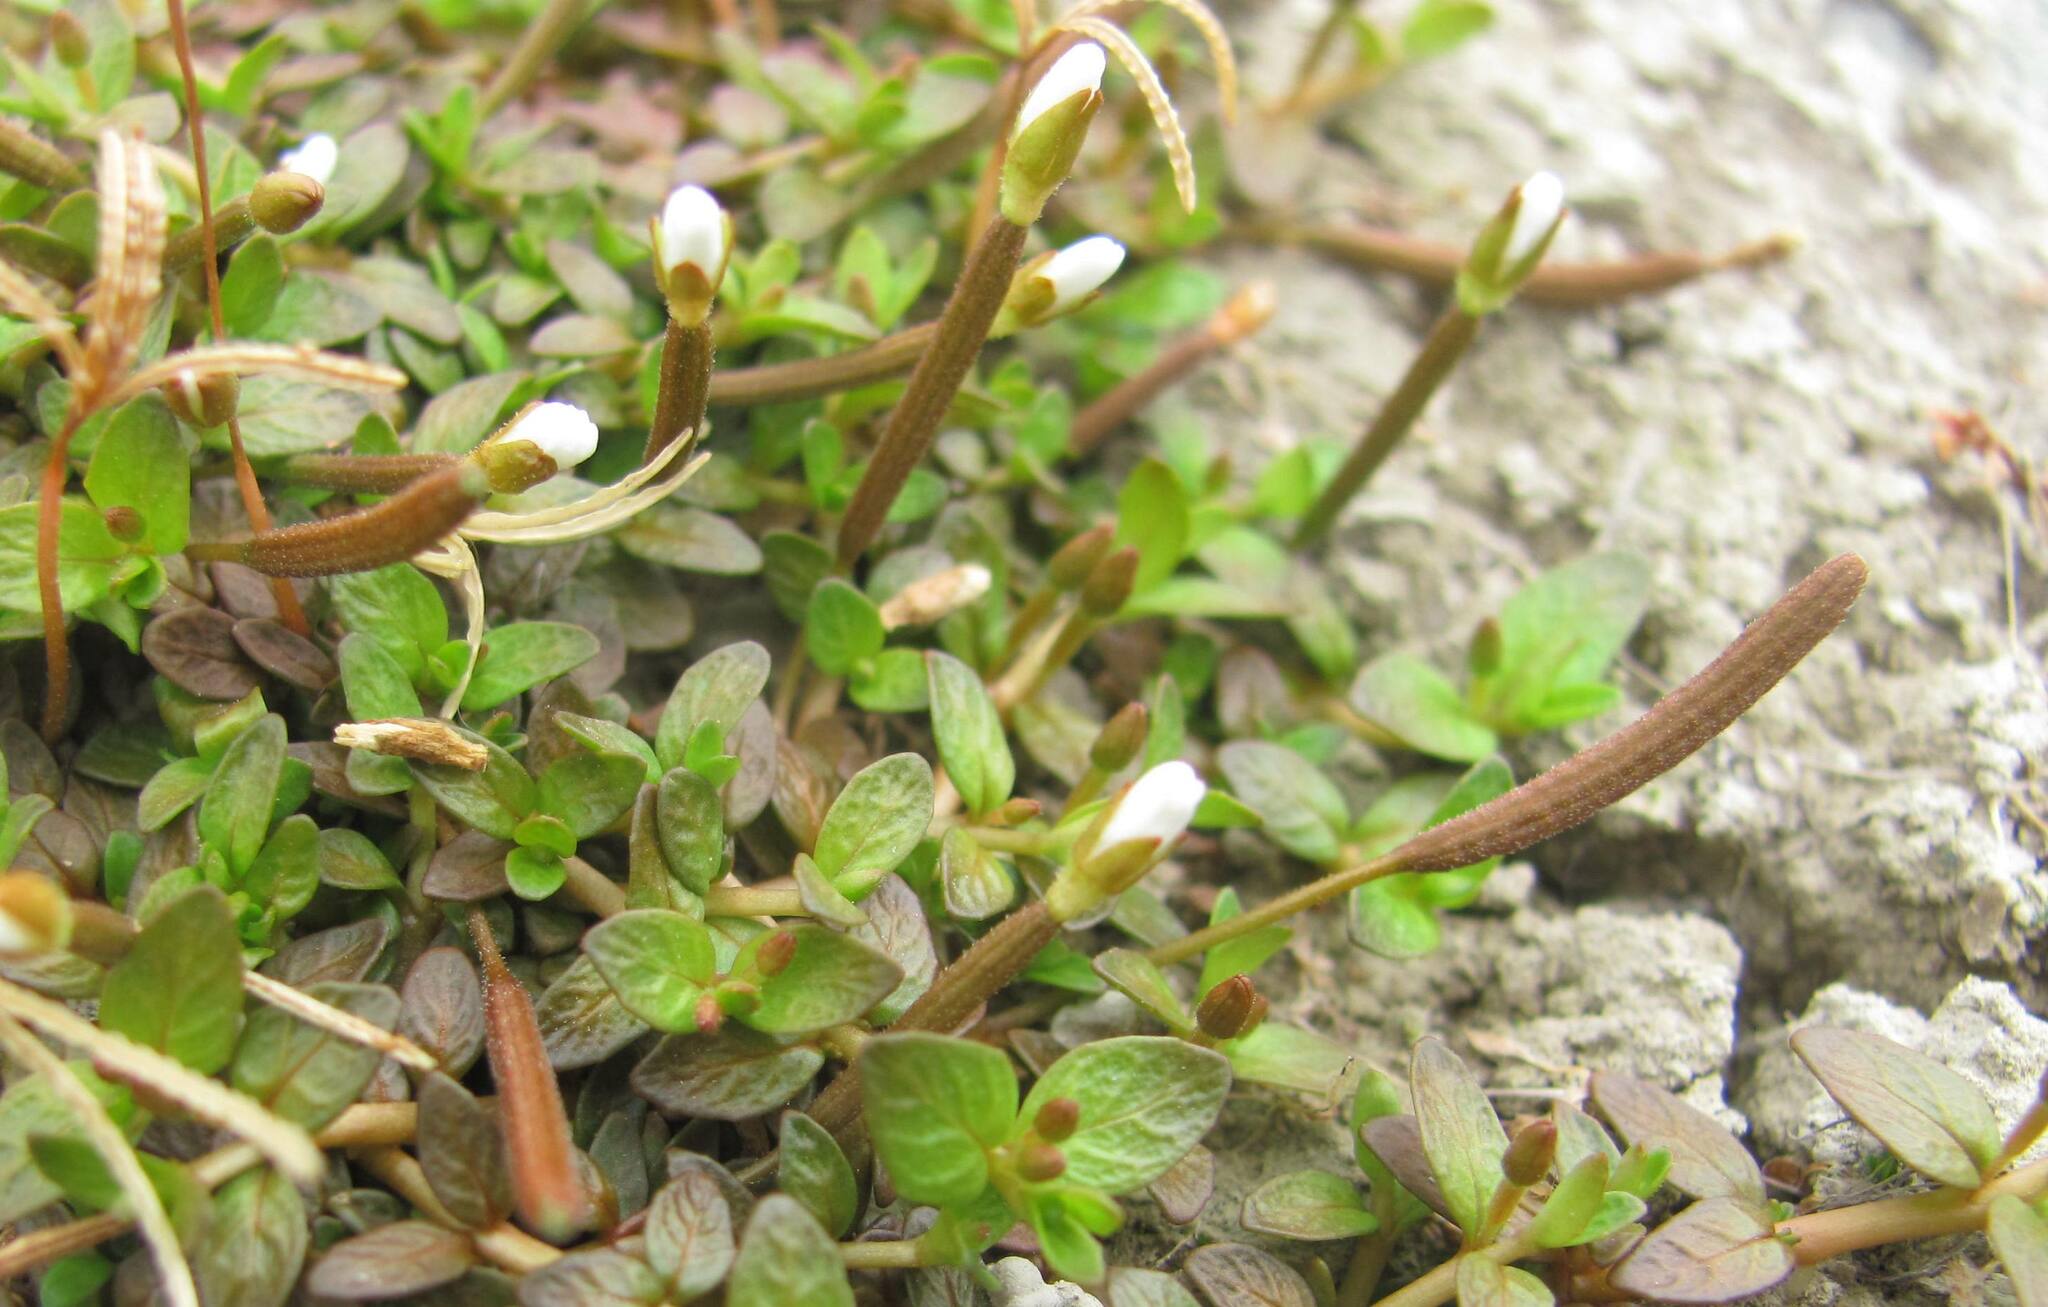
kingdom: Plantae
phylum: Tracheophyta
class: Magnoliopsida
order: Myrtales
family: Onagraceae
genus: Epilobium
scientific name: Epilobium angustum
